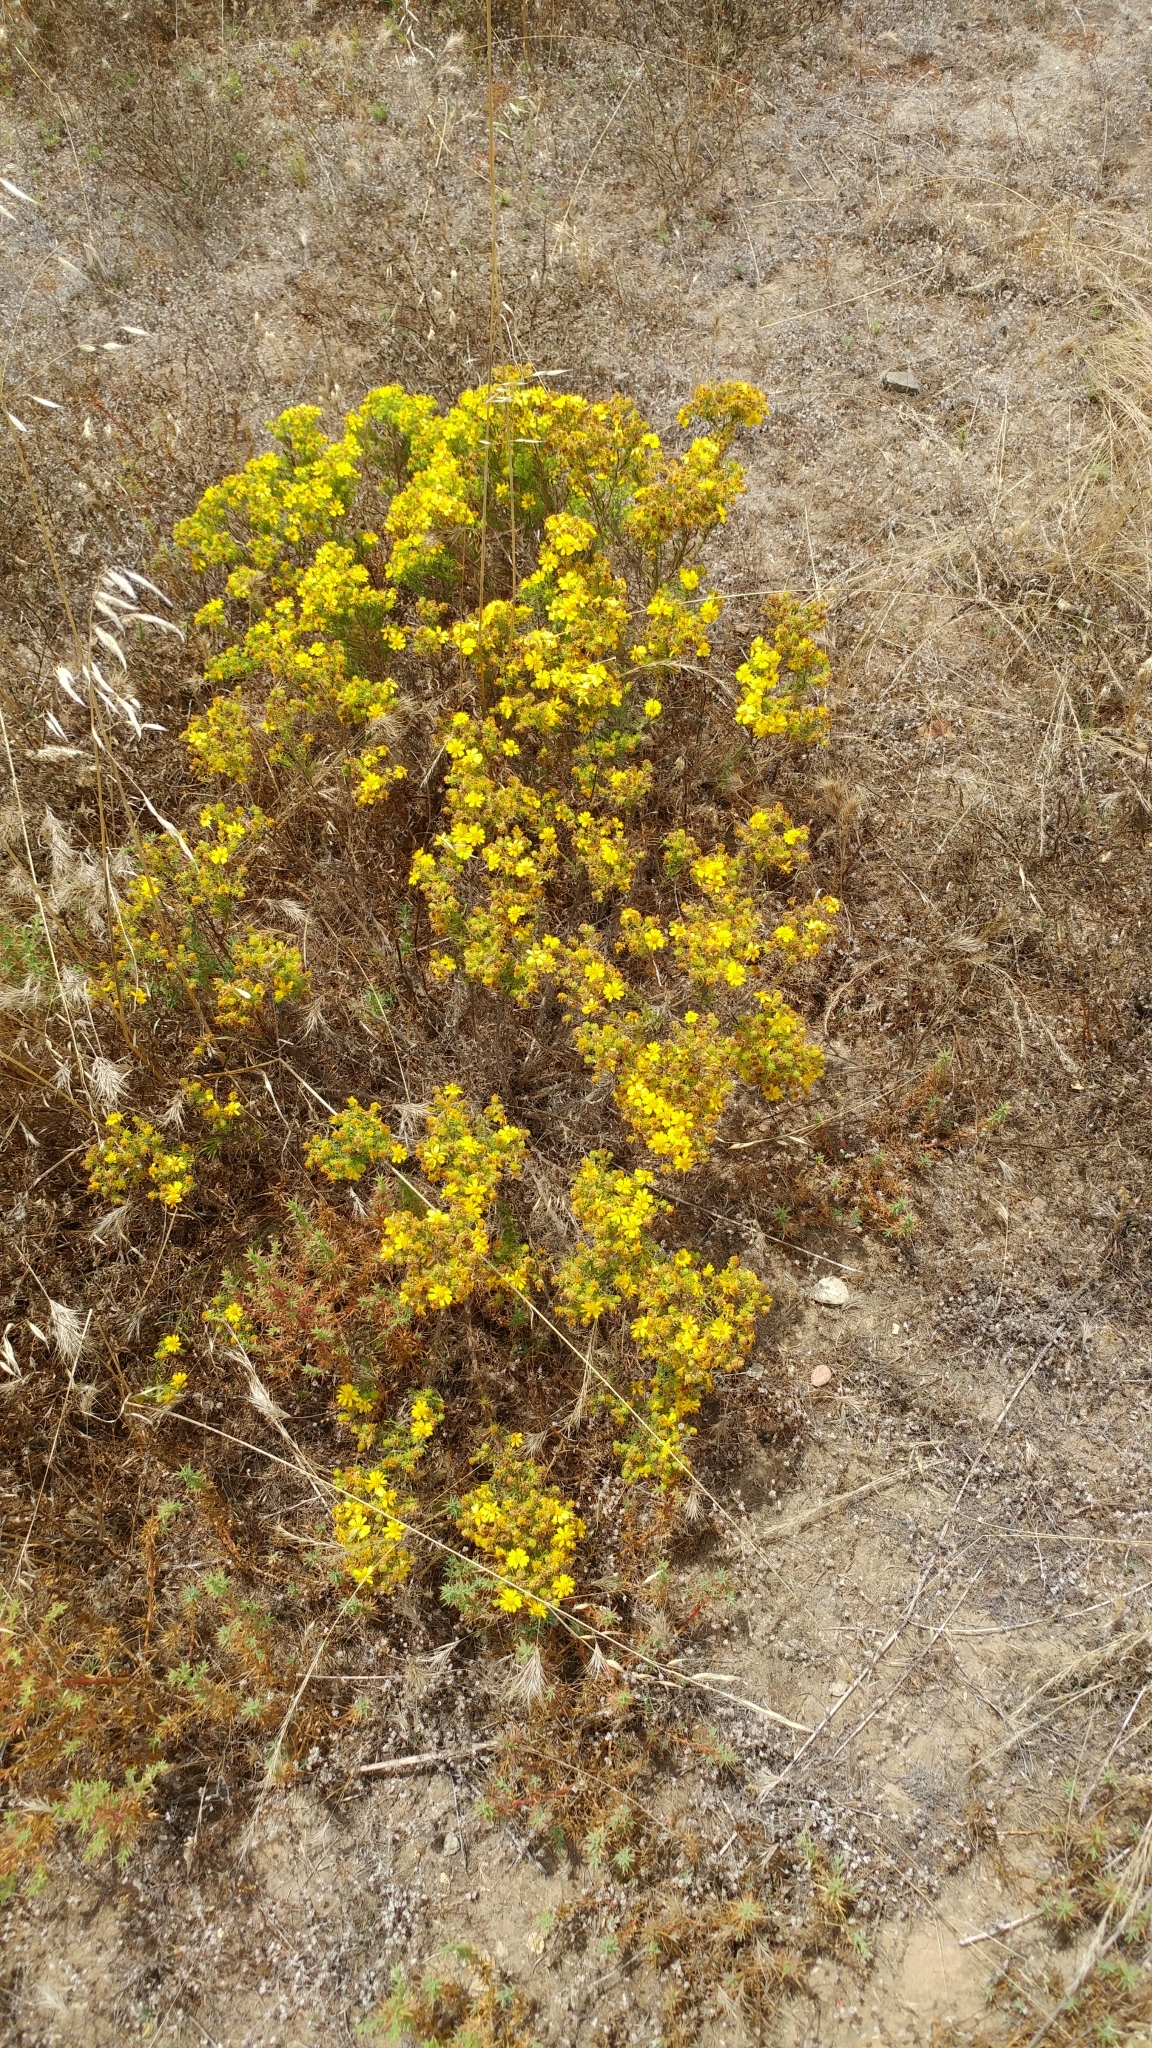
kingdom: Plantae
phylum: Tracheophyta
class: Magnoliopsida
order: Asterales
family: Asteraceae
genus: Deinandra
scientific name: Deinandra clementina
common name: Island tarplant
